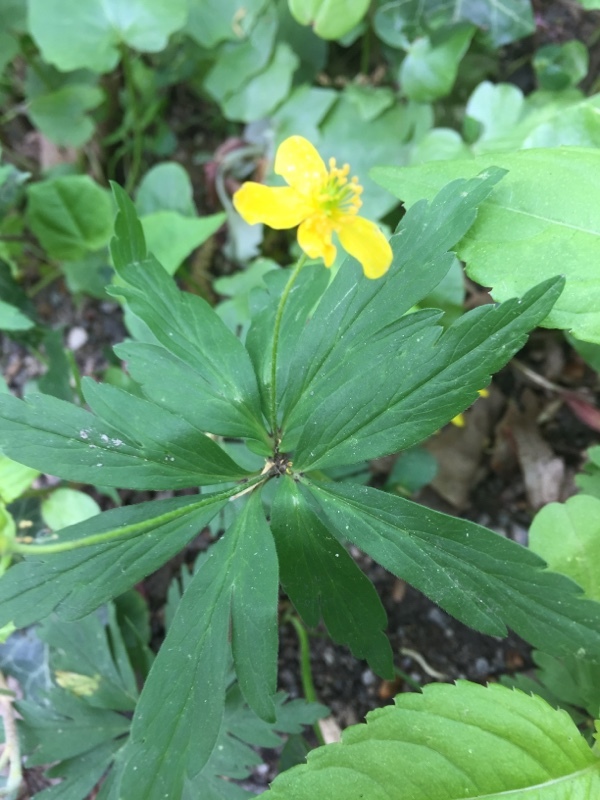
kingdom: Plantae
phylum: Tracheophyta
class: Magnoliopsida
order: Ranunculales
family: Ranunculaceae
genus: Anemone
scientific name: Anemone ranunculoides
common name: Yellow anemone
